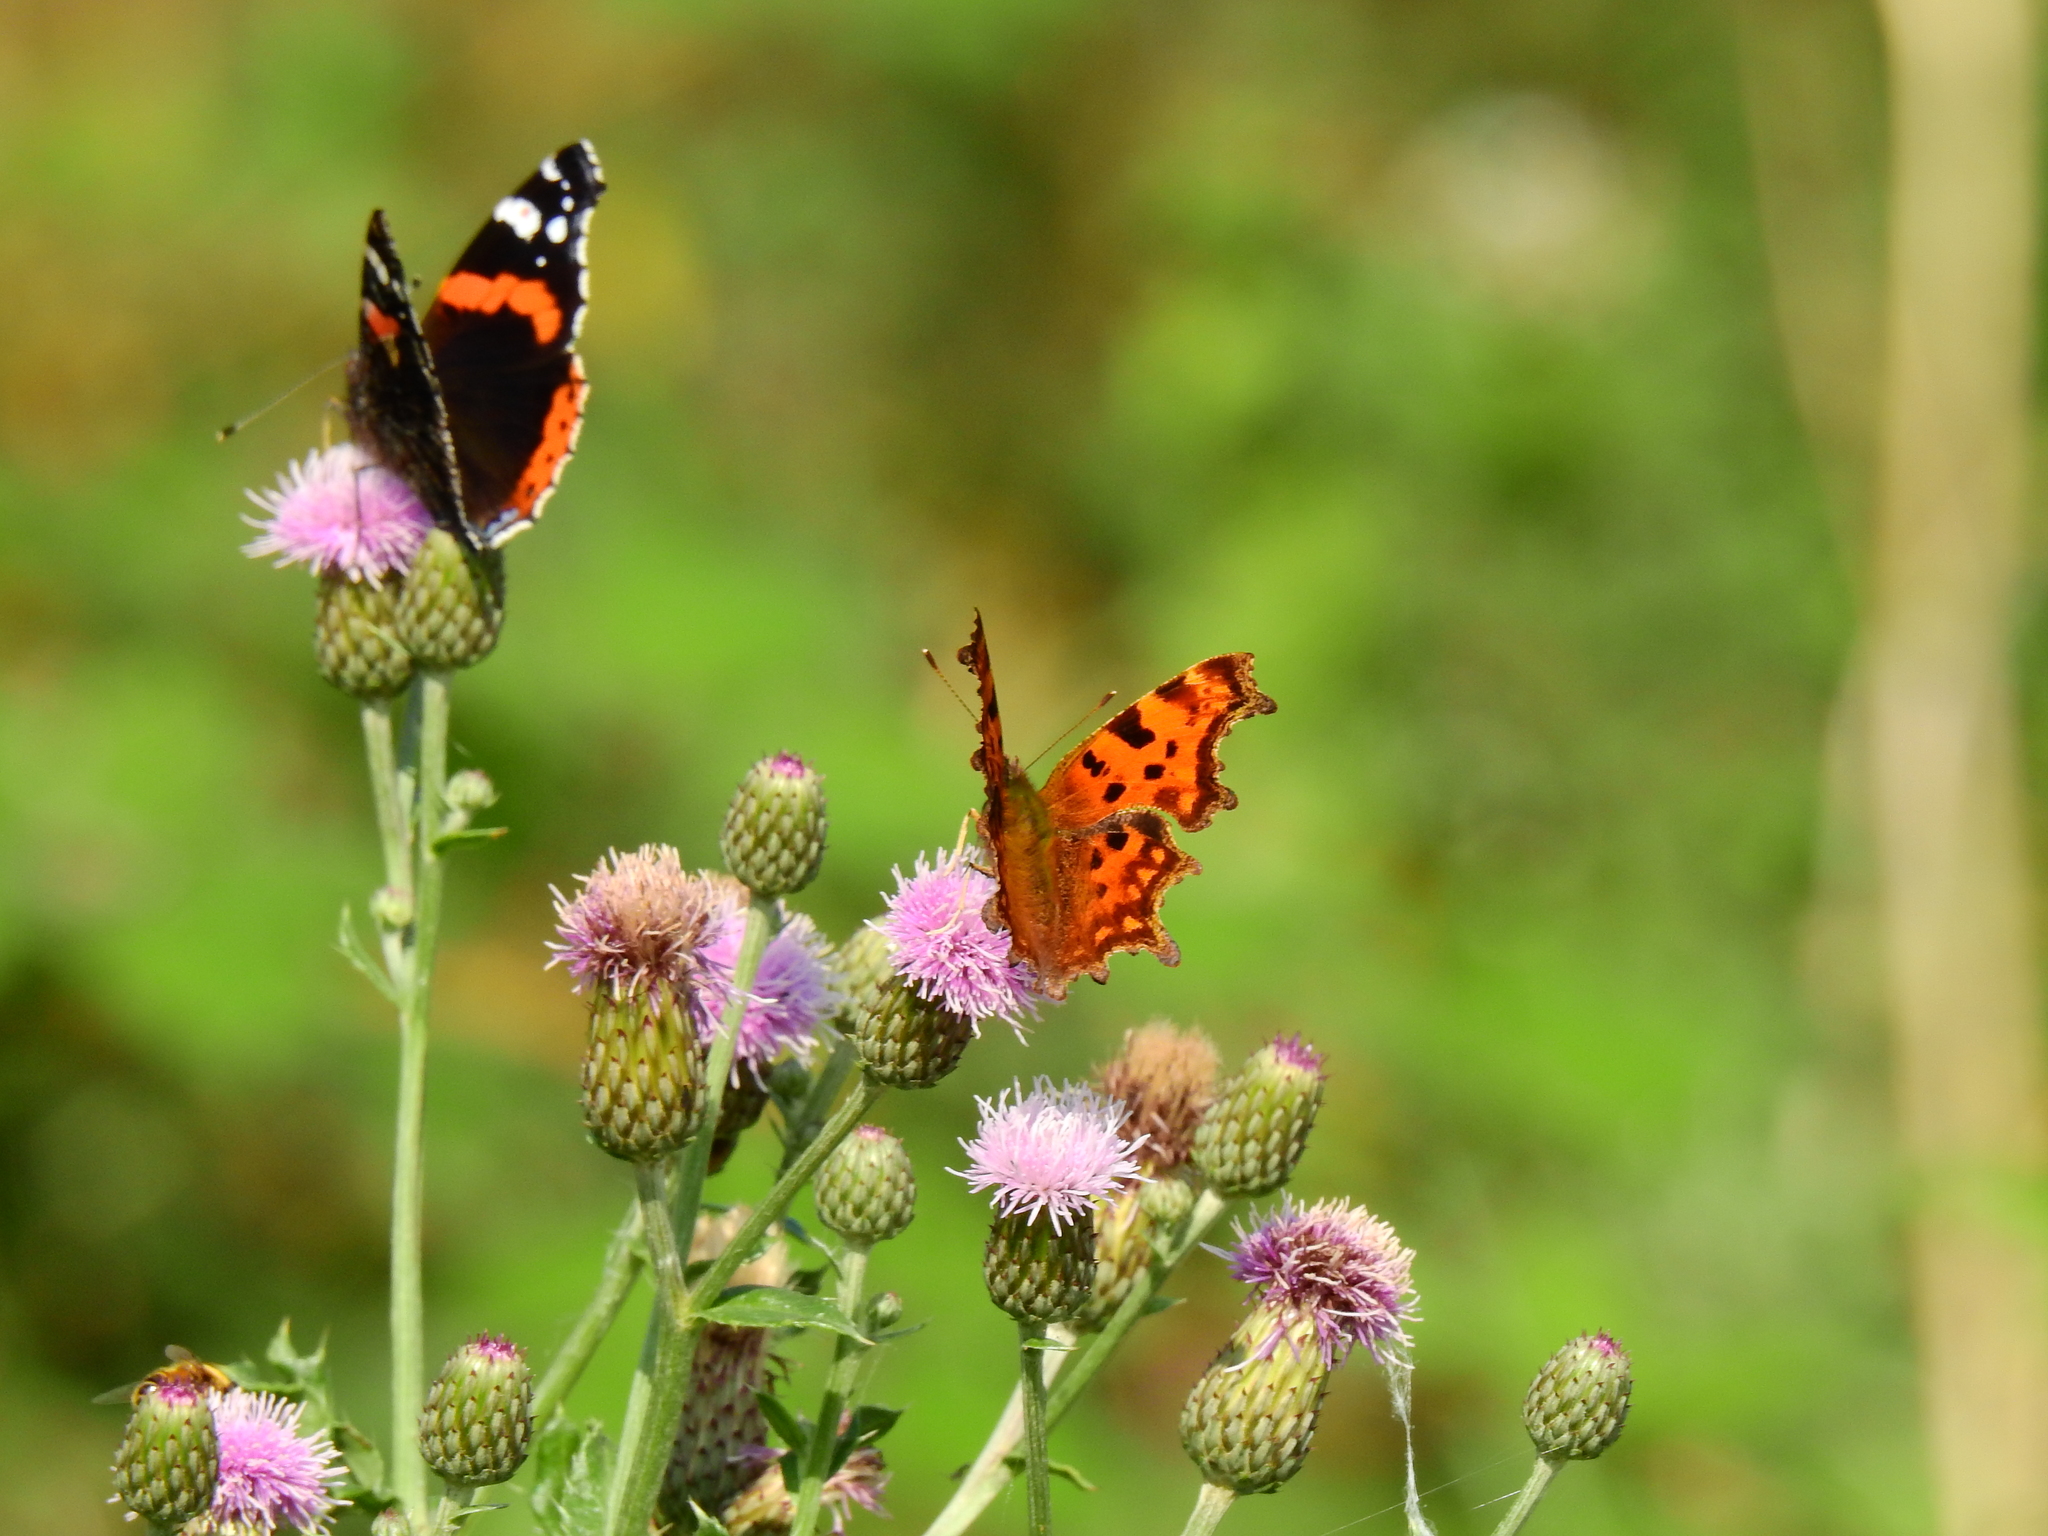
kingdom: Animalia
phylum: Arthropoda
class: Insecta
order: Lepidoptera
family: Nymphalidae
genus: Polygonia
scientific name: Polygonia c-album
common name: Comma
